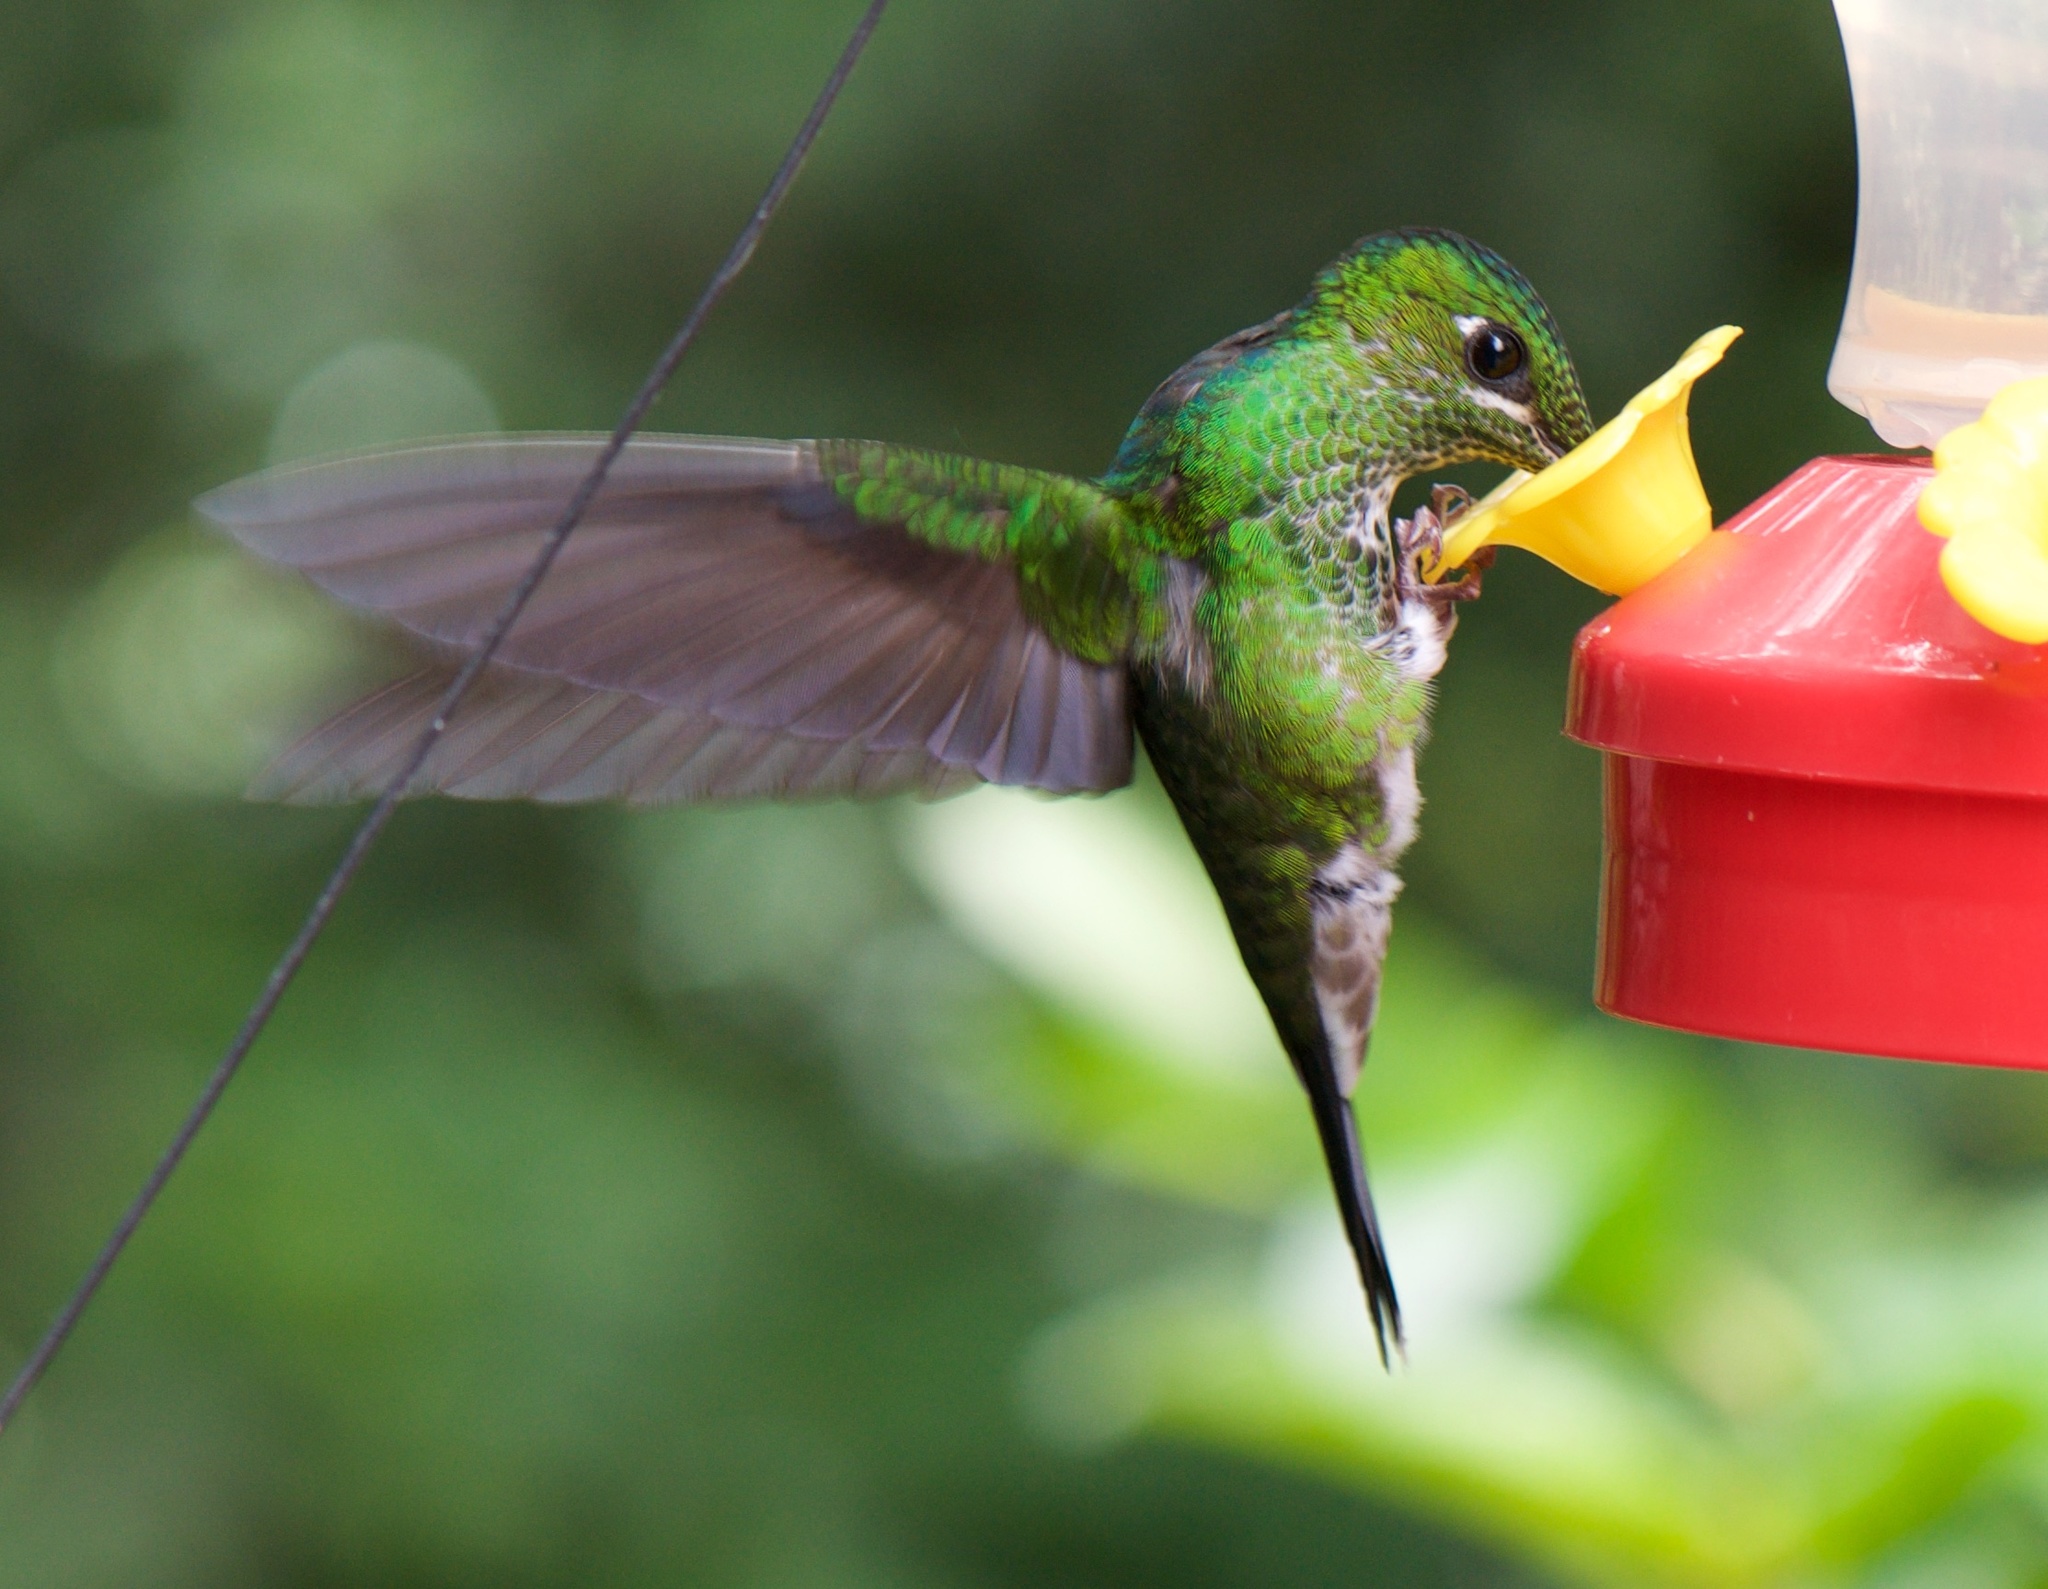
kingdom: Animalia
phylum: Chordata
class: Aves
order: Apodiformes
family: Trochilidae
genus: Heliodoxa
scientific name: Heliodoxa jacula
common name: Green-crowned brilliant
